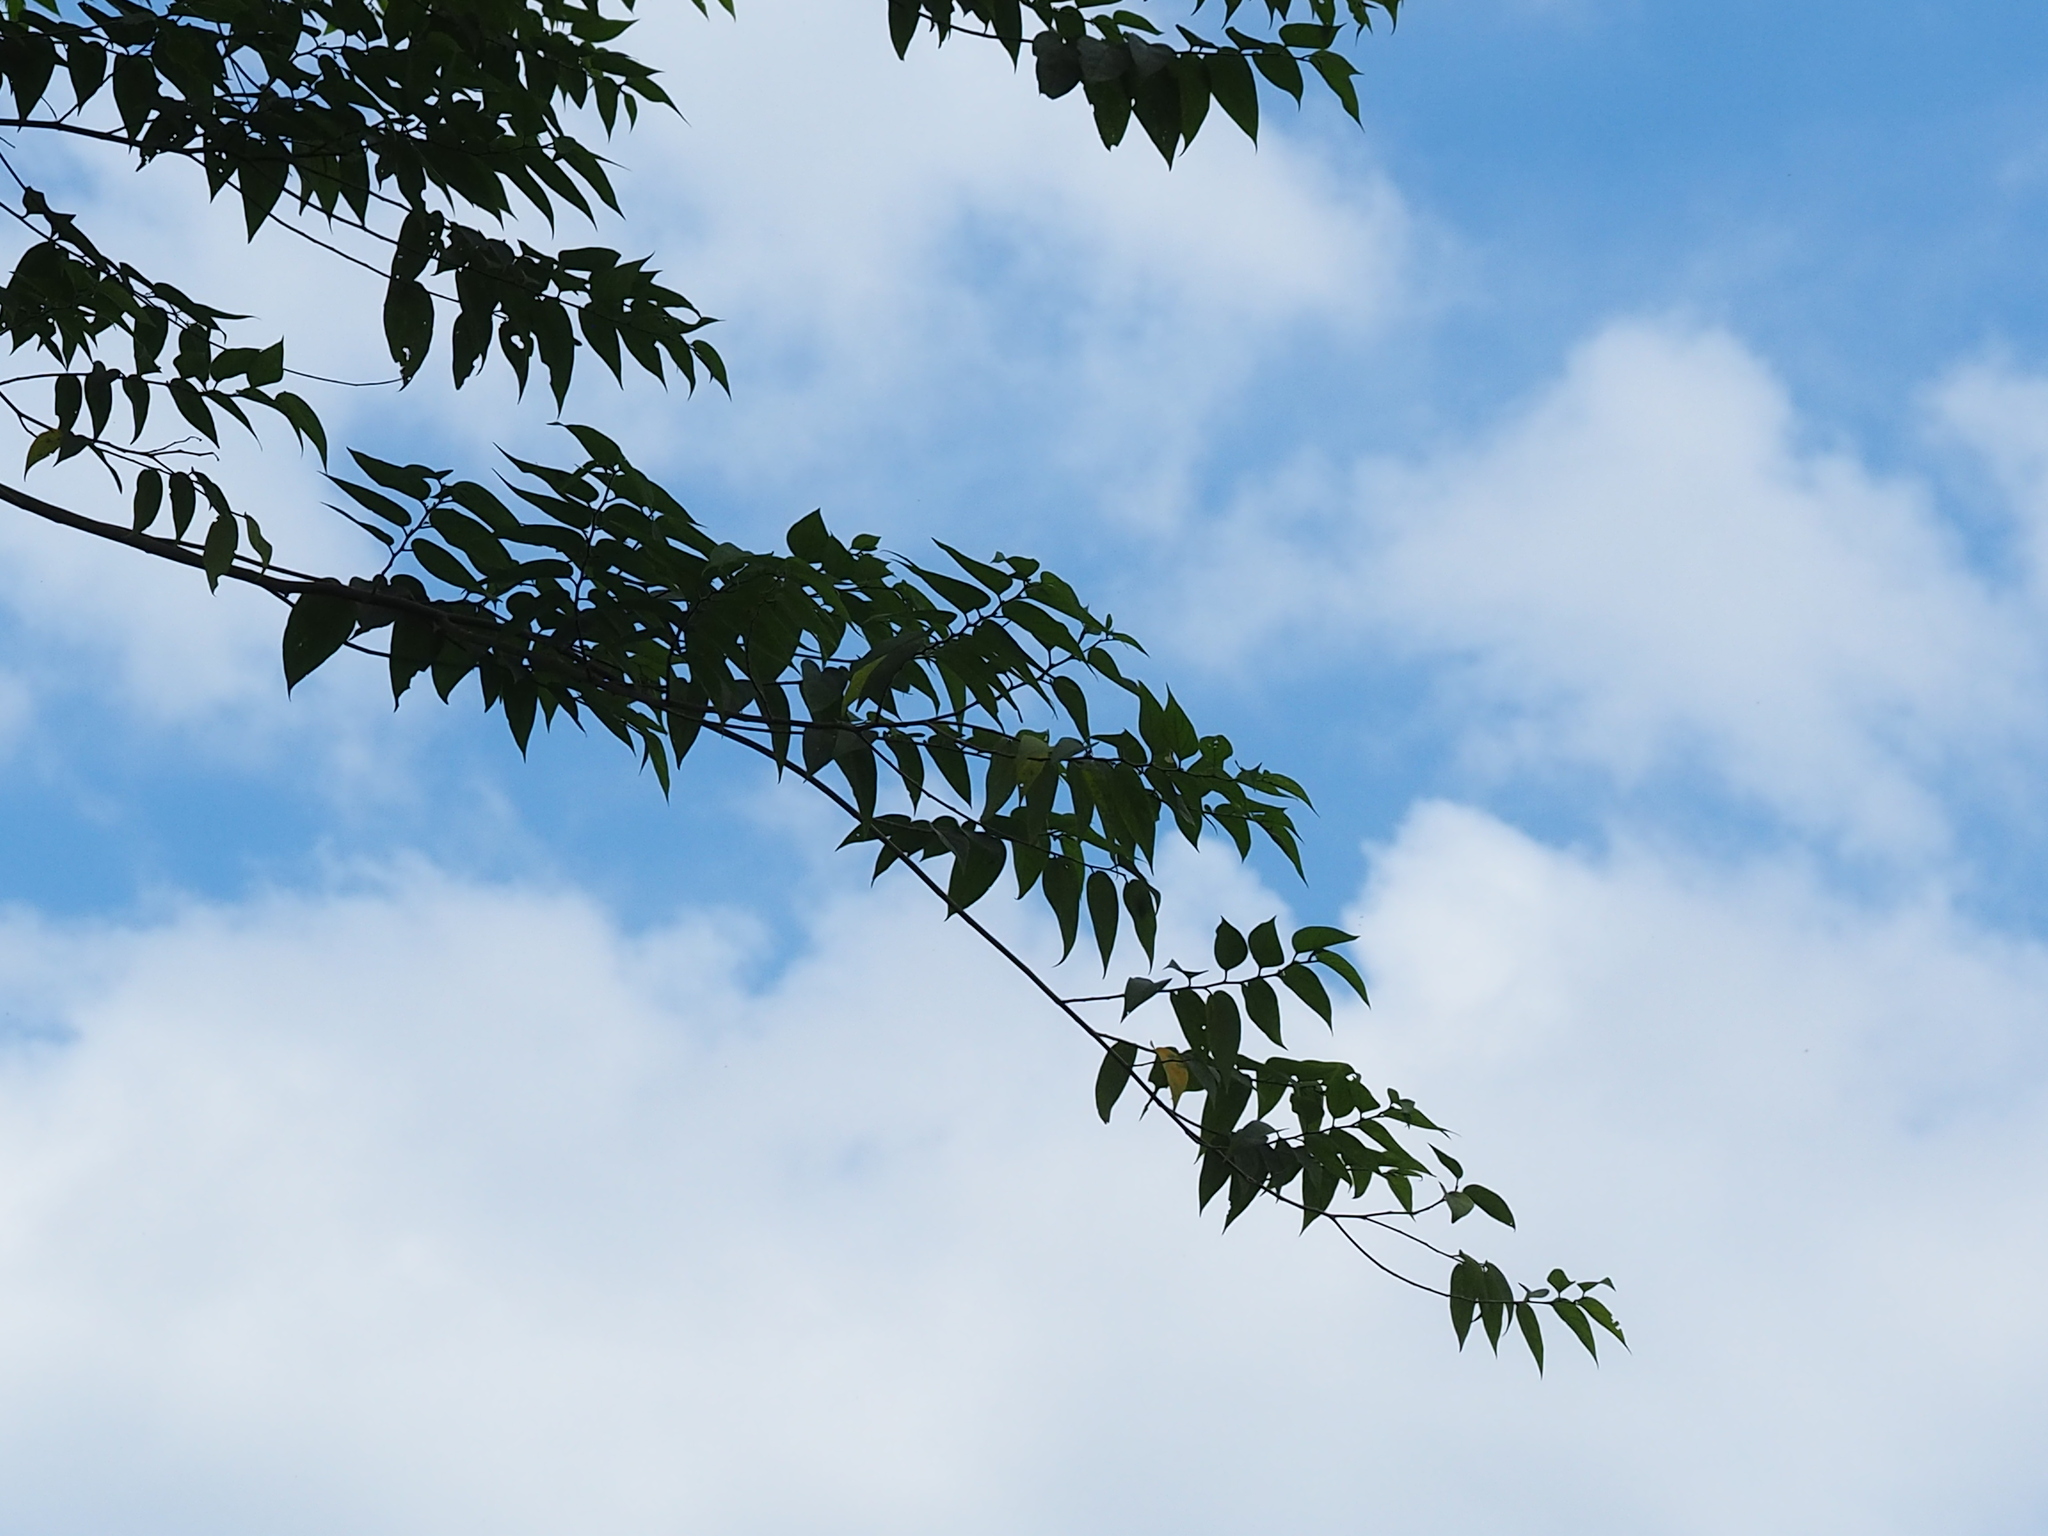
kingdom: Plantae
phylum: Tracheophyta
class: Magnoliopsida
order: Rosales
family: Cannabaceae
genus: Trema
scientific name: Trema orientale
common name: Indian charcoal tree
